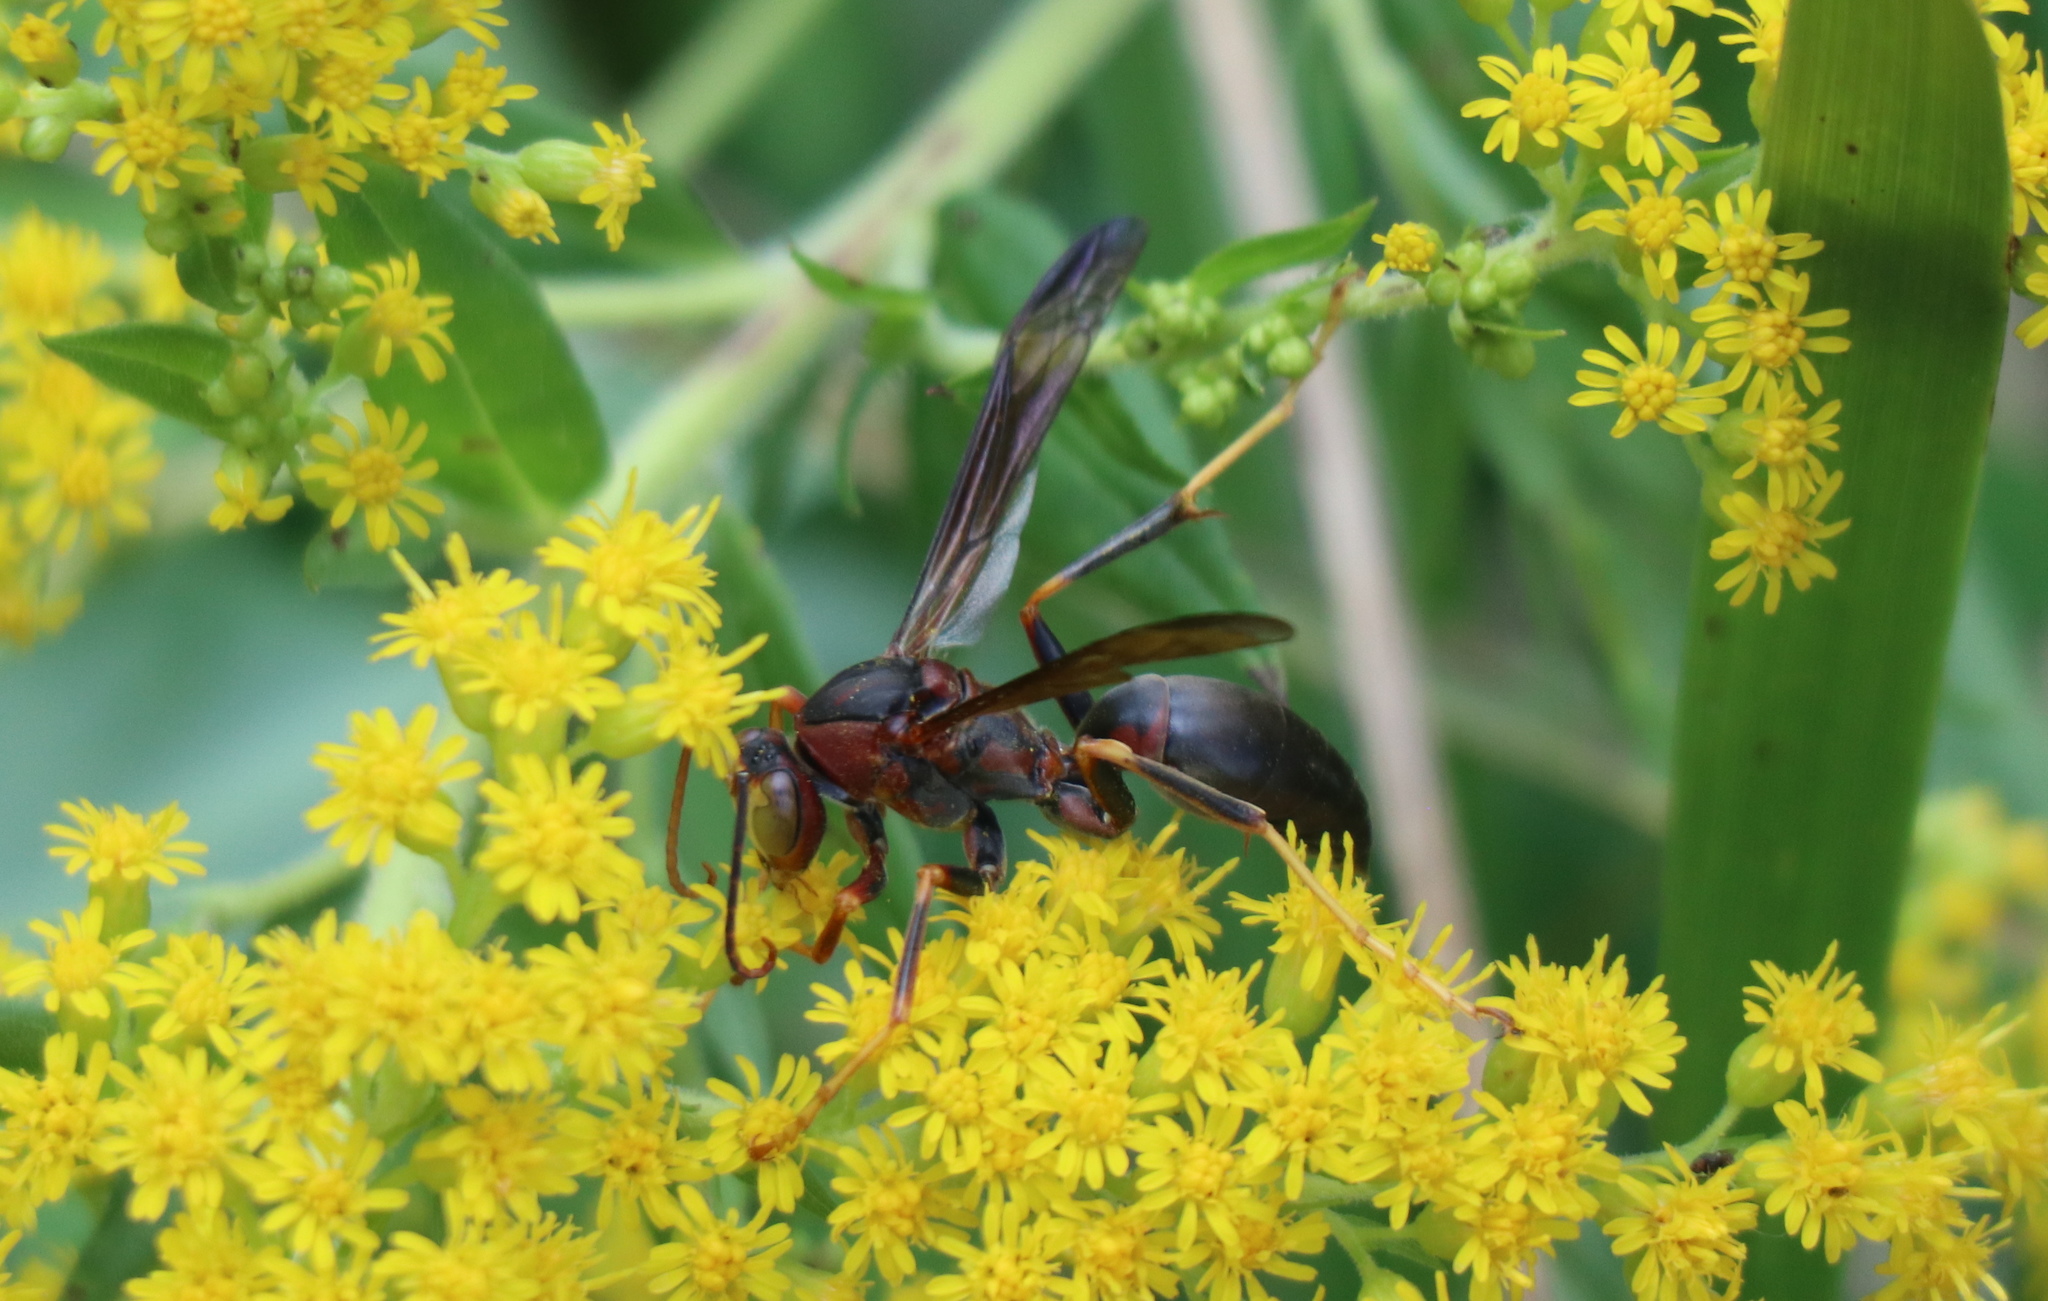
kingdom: Animalia
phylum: Arthropoda
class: Insecta
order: Hymenoptera
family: Eumenidae
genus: Polistes
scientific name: Polistes metricus
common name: Metric paper wasp
